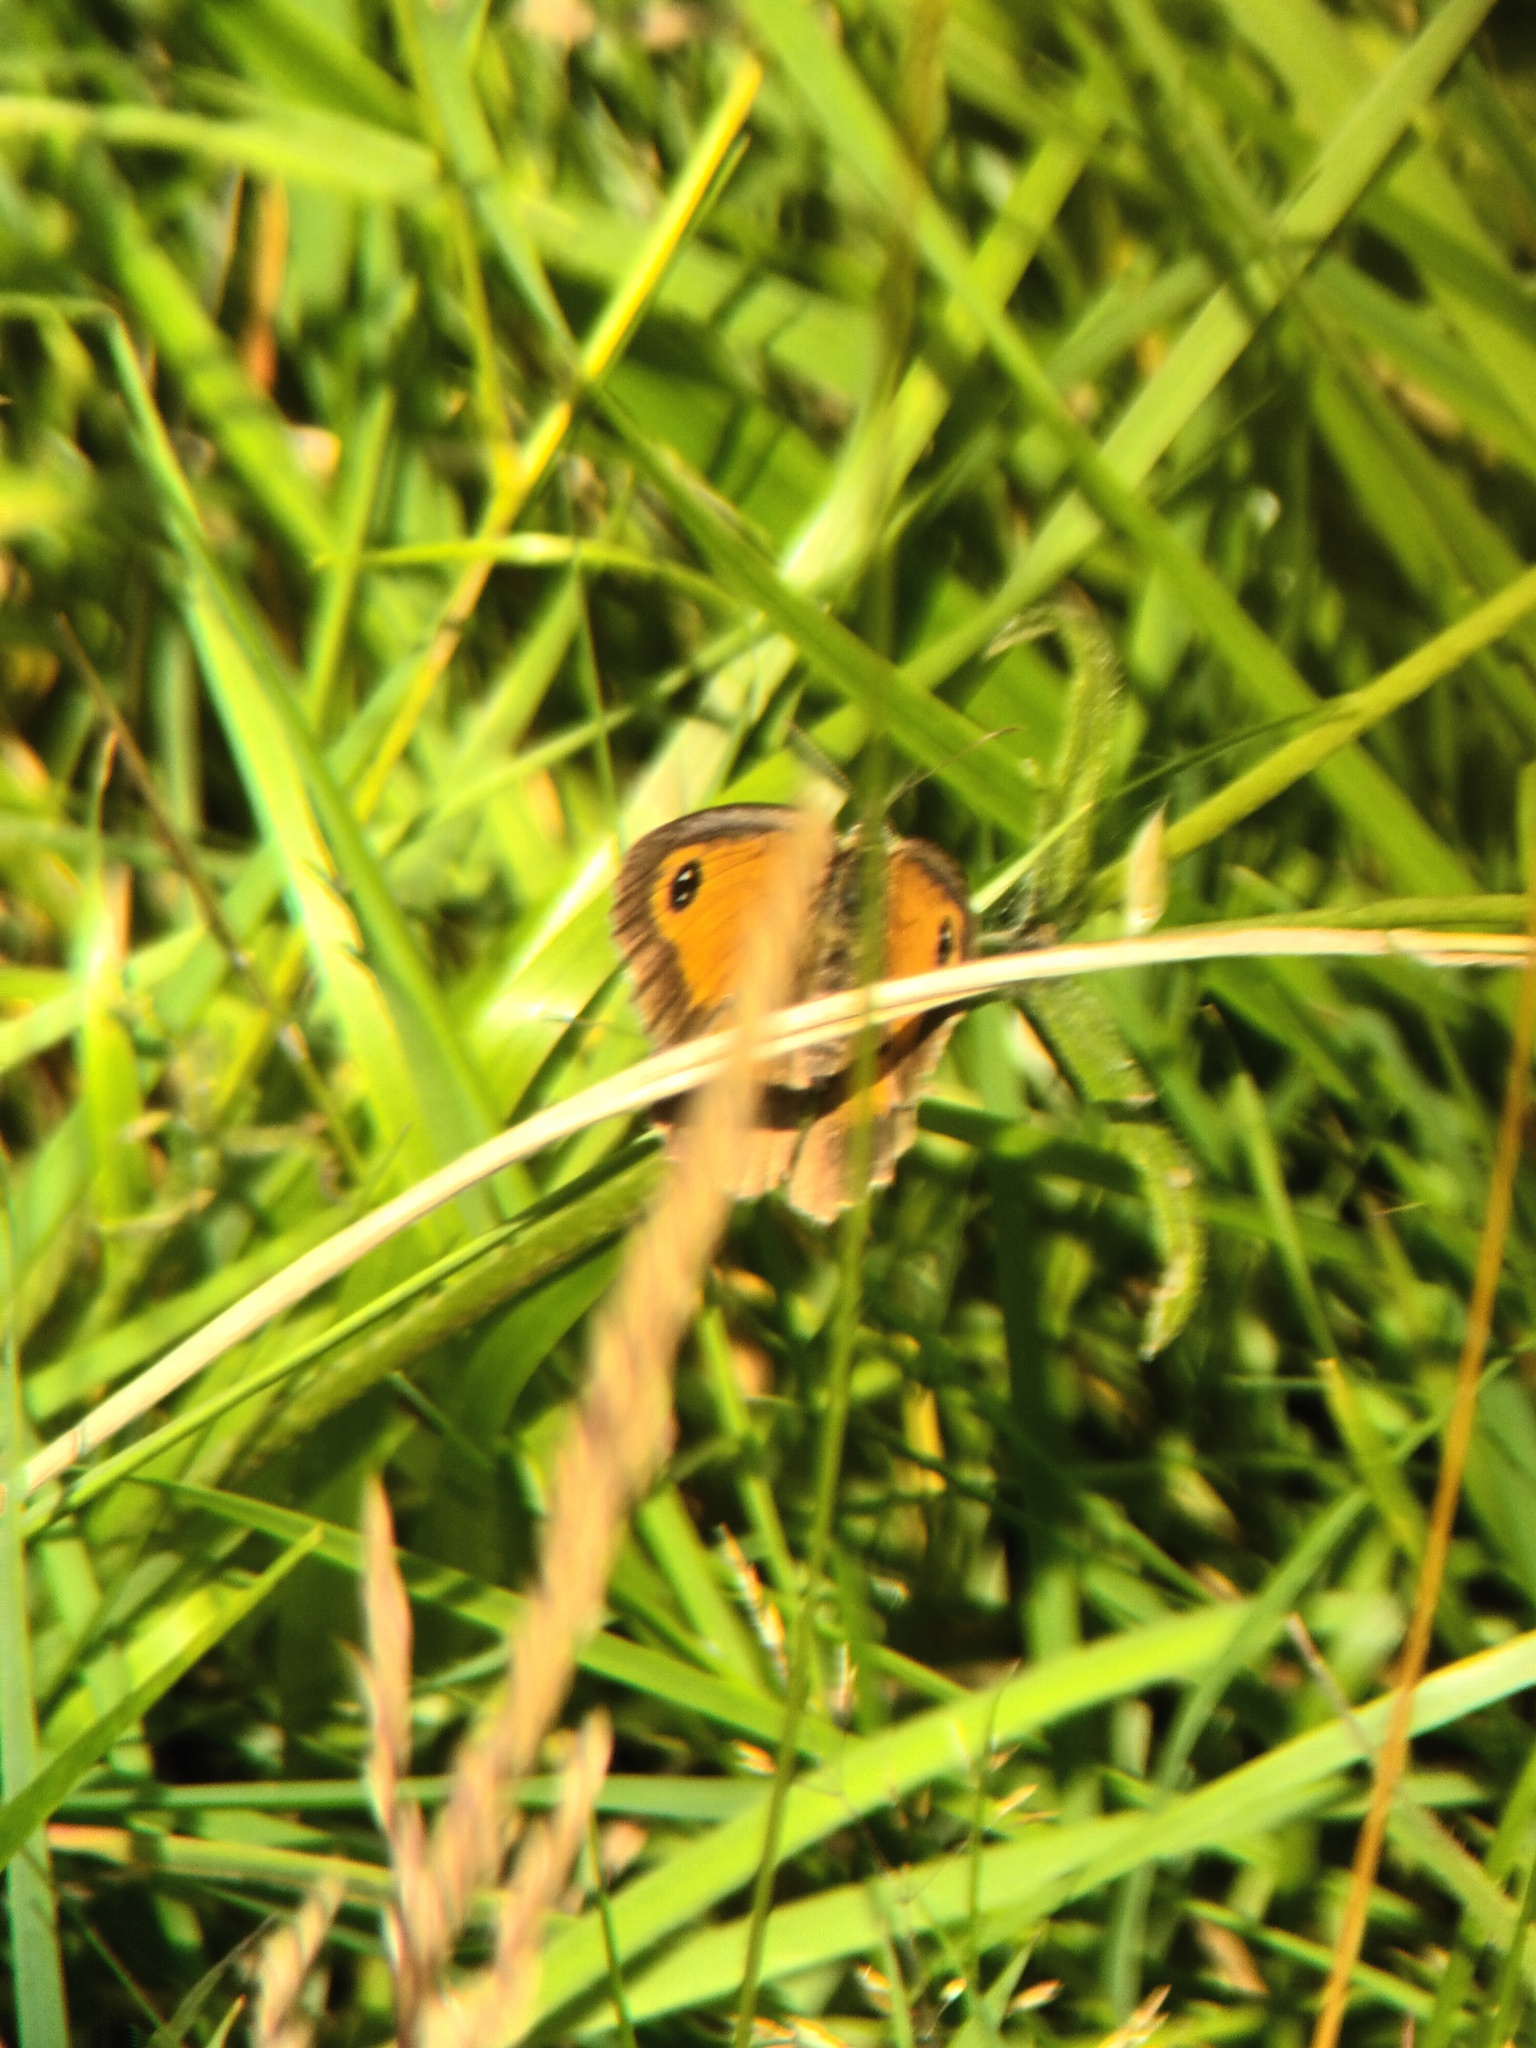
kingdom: Animalia
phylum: Arthropoda
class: Insecta
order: Lepidoptera
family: Nymphalidae
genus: Pyronia
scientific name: Pyronia tithonus
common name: Gatekeeper
